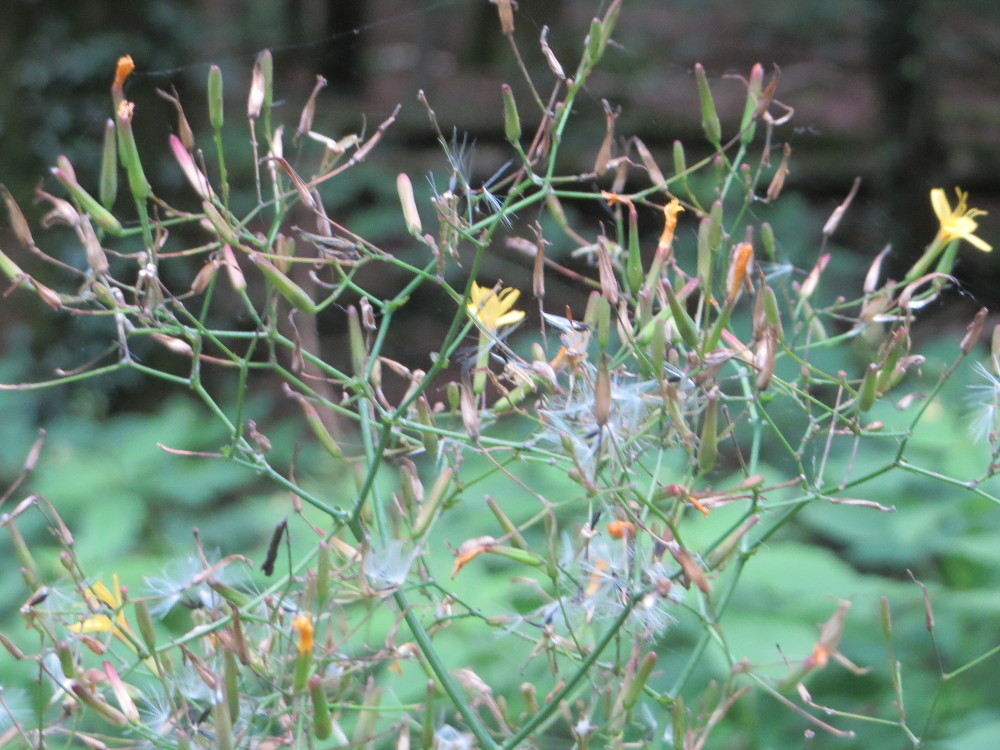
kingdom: Plantae
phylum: Tracheophyta
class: Magnoliopsida
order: Asterales
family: Asteraceae
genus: Mycelis
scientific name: Mycelis muralis
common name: Wall lettuce
